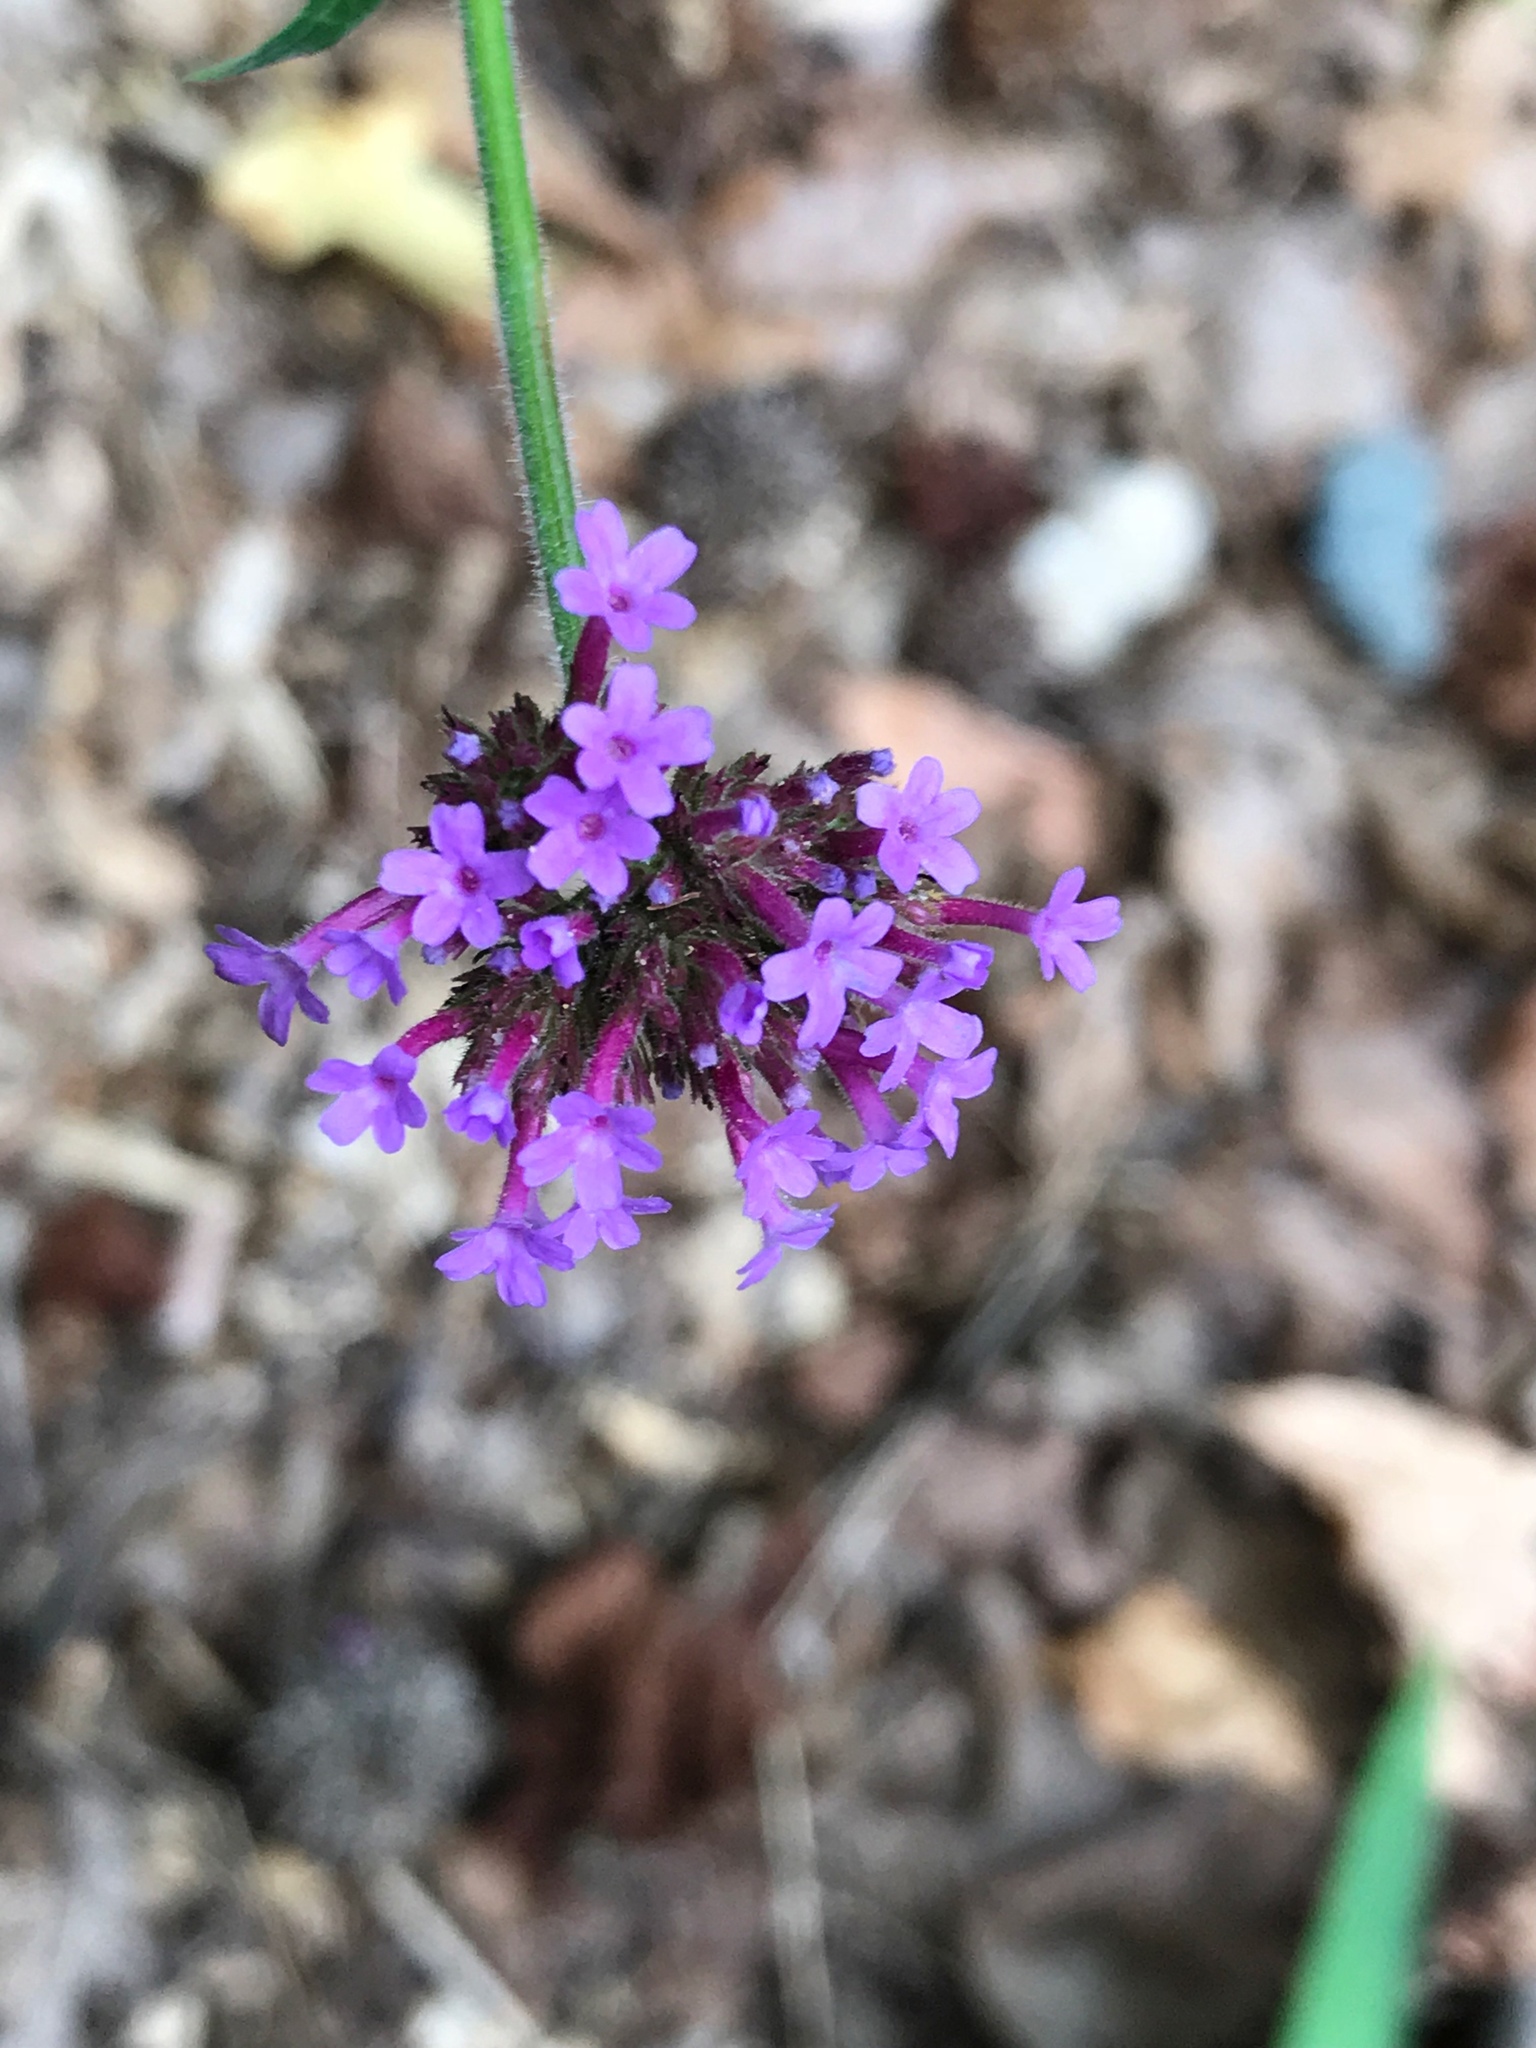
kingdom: Plantae
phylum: Tracheophyta
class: Magnoliopsida
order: Lamiales
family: Verbenaceae
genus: Verbena
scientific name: Verbena bonariensis
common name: Purpletop vervain
